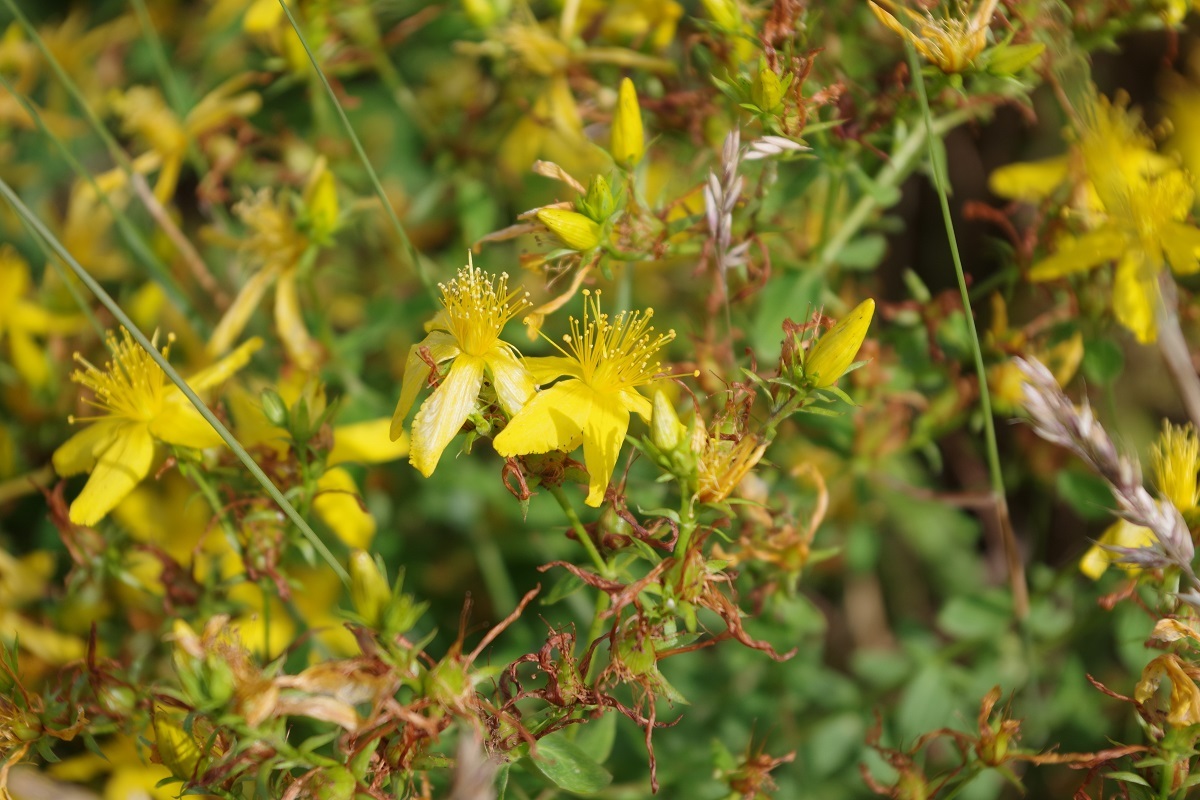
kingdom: Plantae
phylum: Tracheophyta
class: Magnoliopsida
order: Malpighiales
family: Hypericaceae
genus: Hypericum
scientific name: Hypericum perforatum
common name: Common st. johnswort
